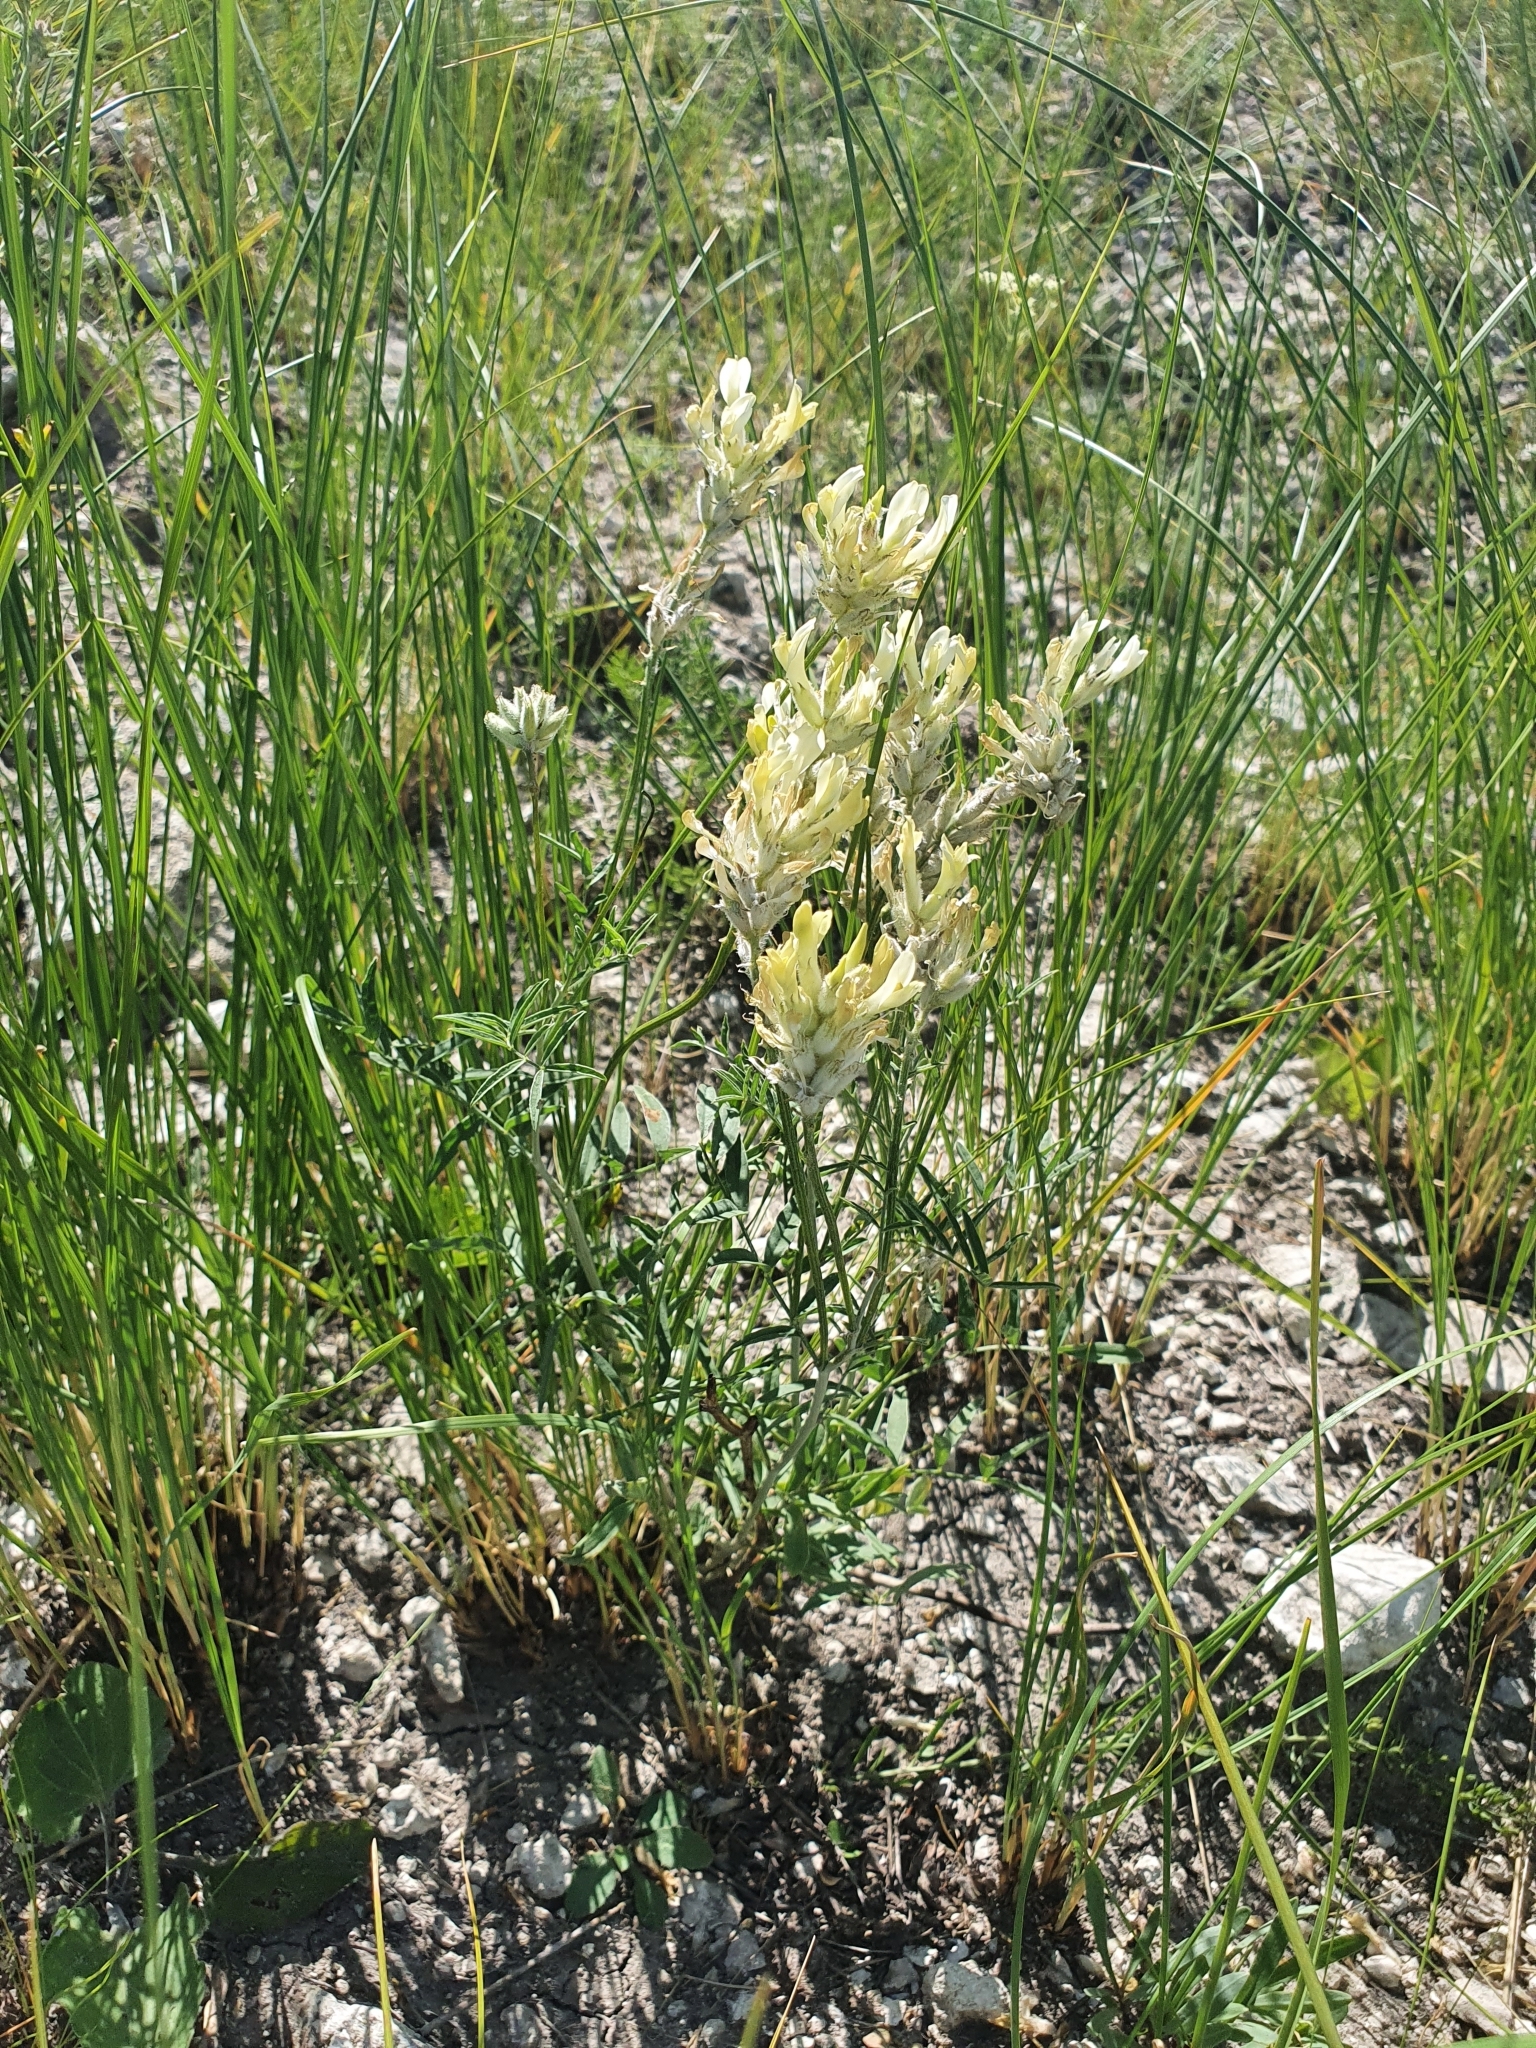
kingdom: Plantae
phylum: Tracheophyta
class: Magnoliopsida
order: Fabales
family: Fabaceae
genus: Astragalus
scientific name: Astragalus zingeri
